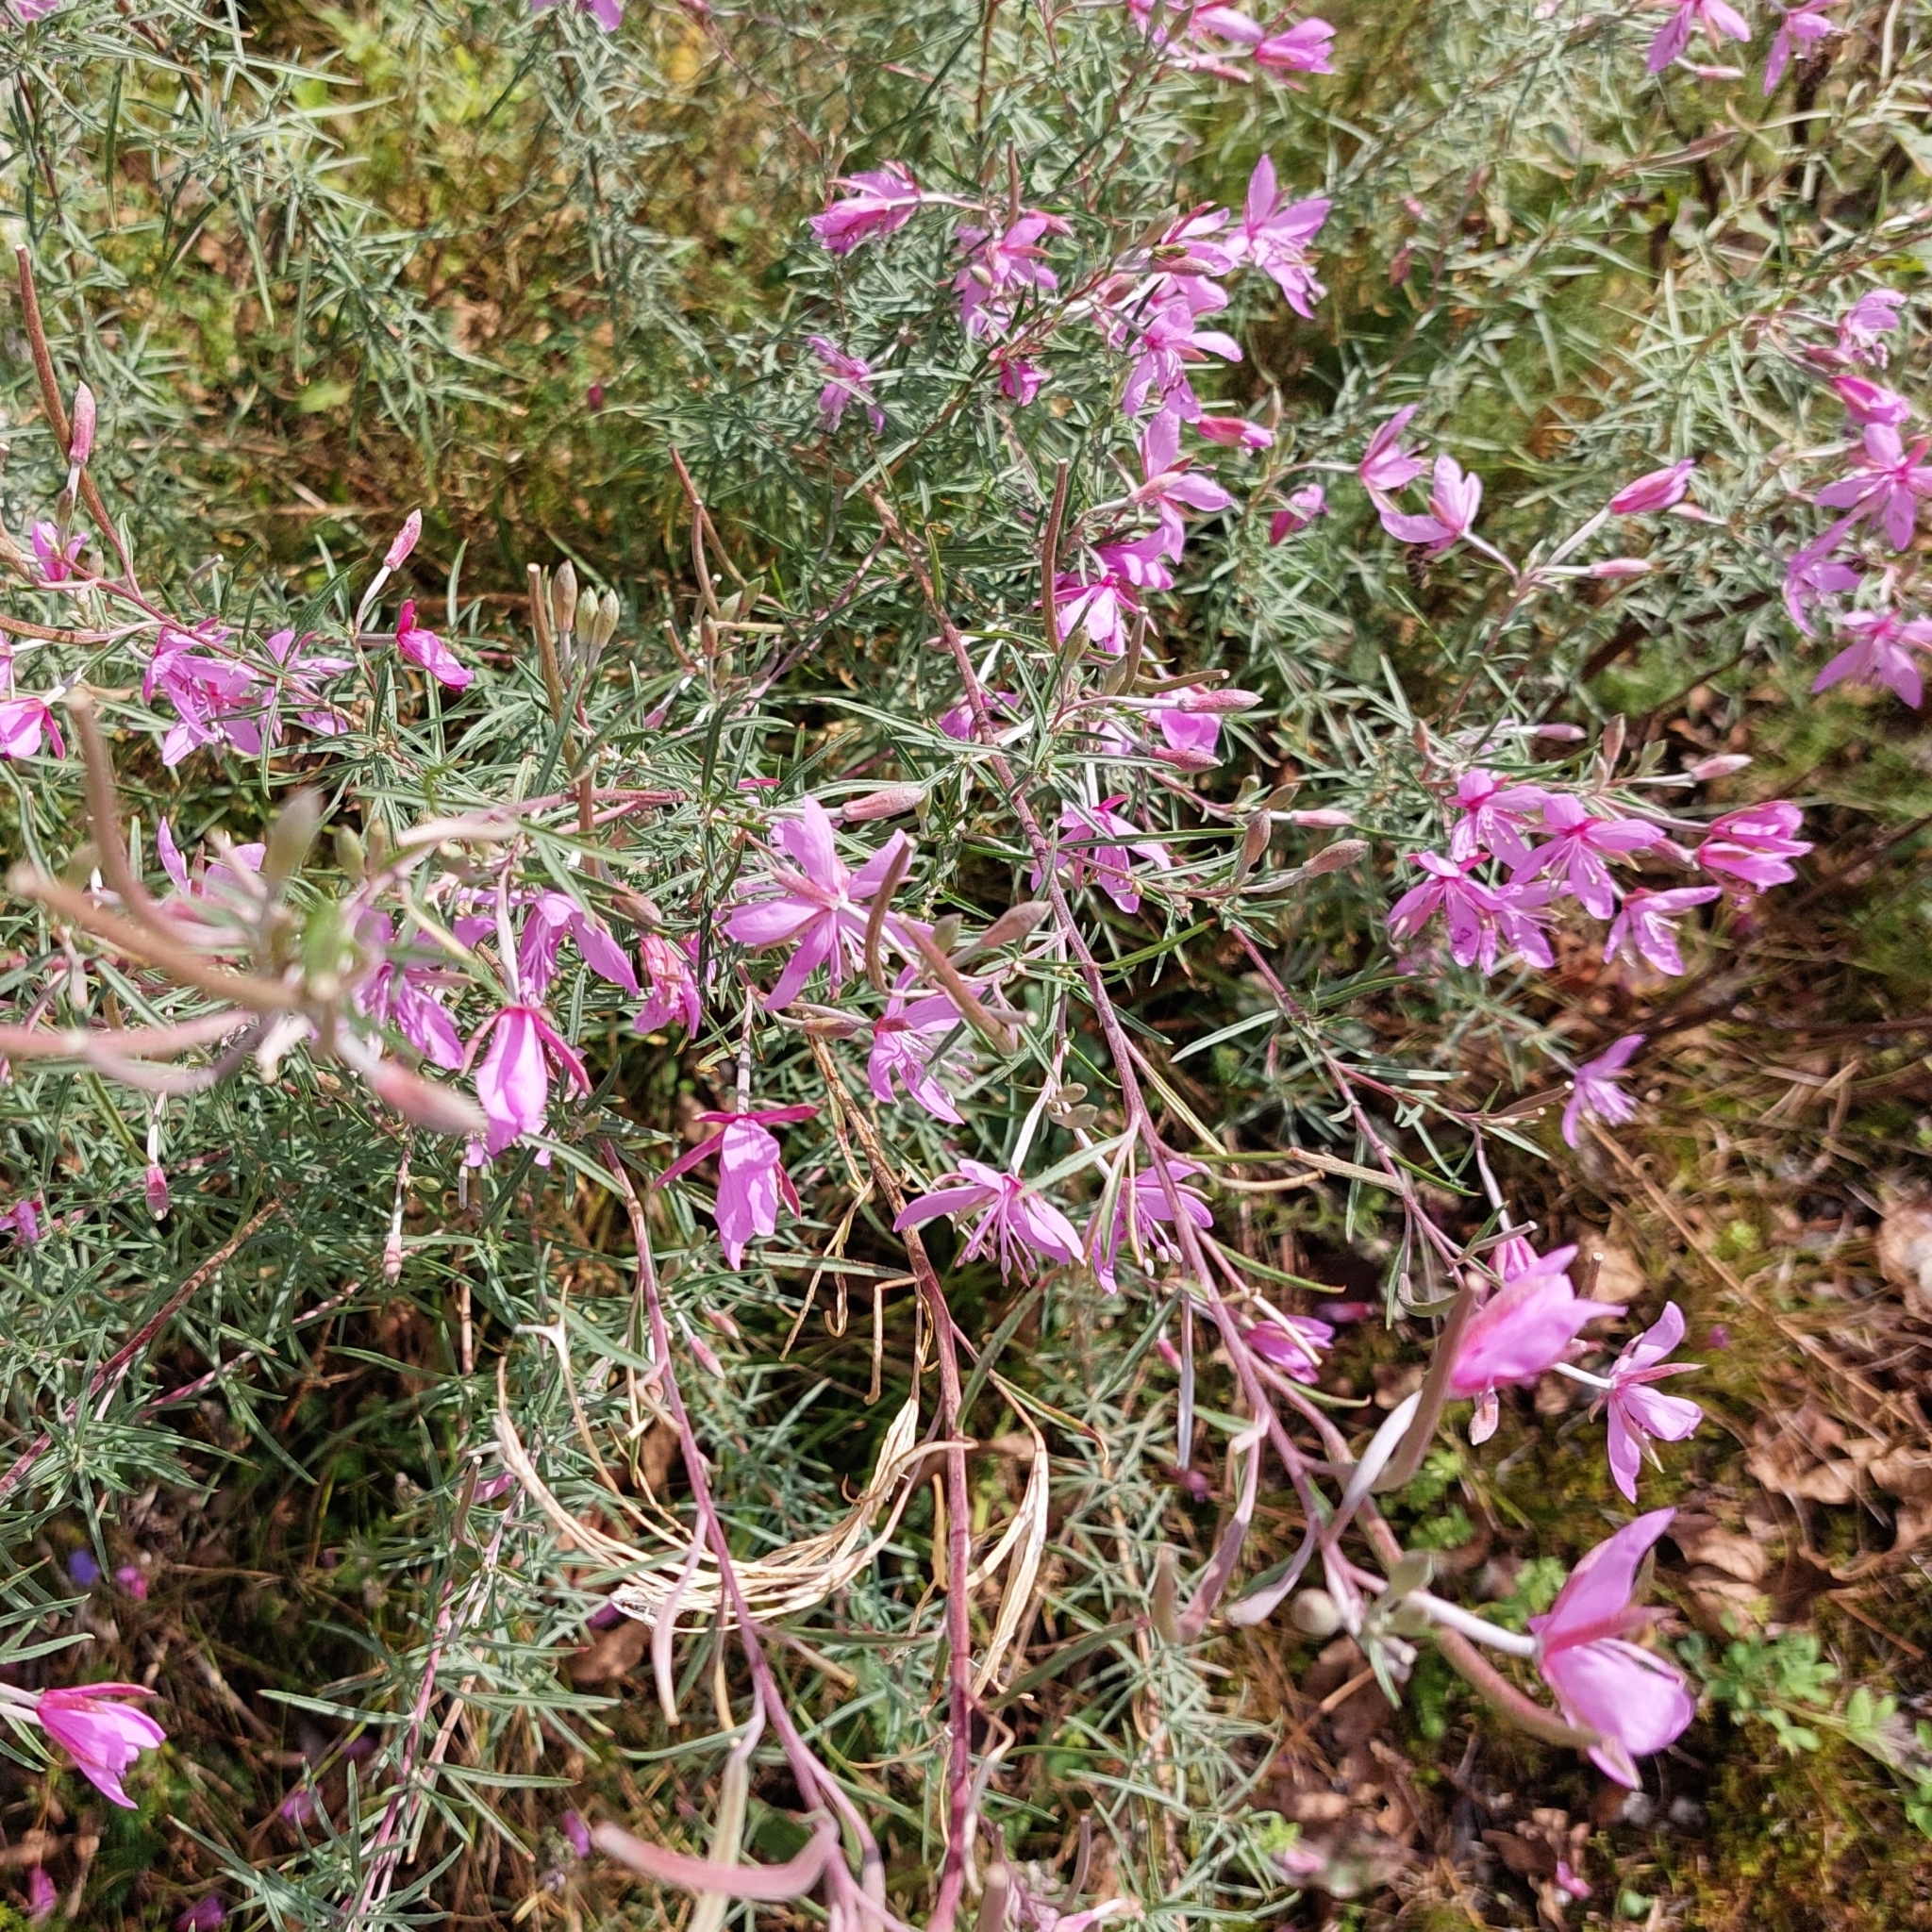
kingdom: Plantae
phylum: Tracheophyta
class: Magnoliopsida
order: Myrtales
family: Onagraceae
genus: Chamaenerion
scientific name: Chamaenerion dodonaei
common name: Rosemary-leaved willowherb
